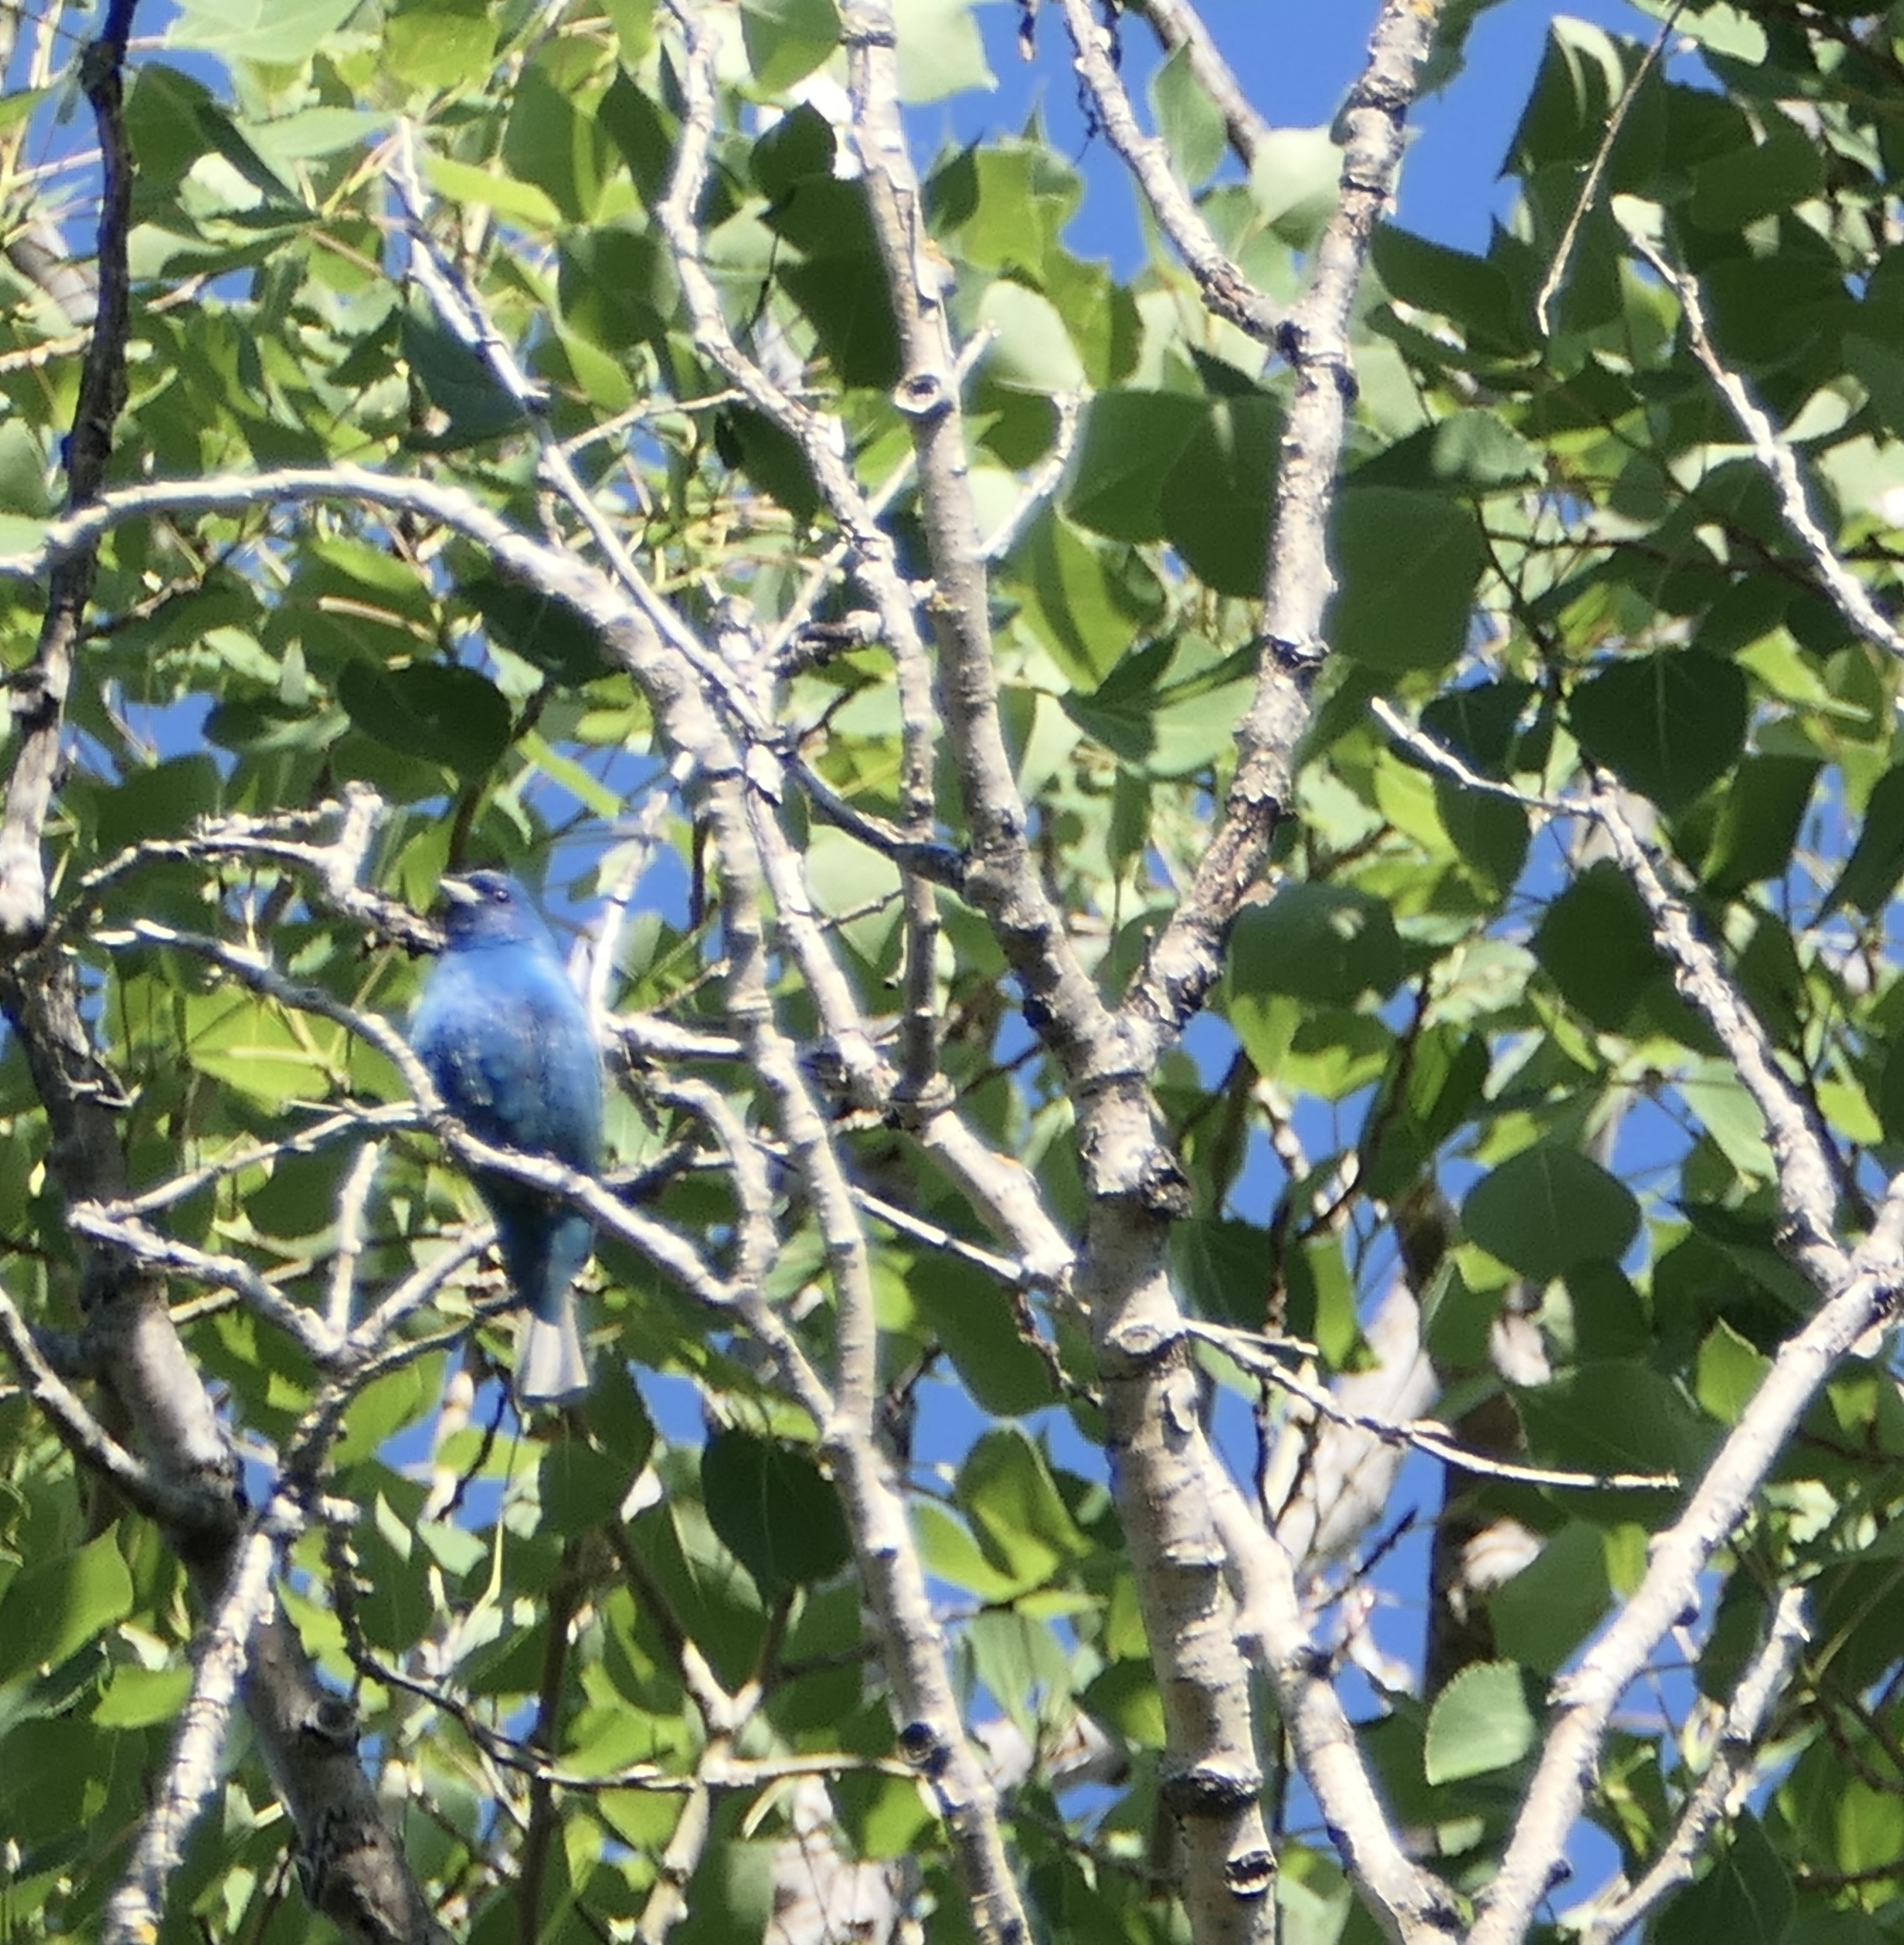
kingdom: Animalia
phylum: Chordata
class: Aves
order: Passeriformes
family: Cardinalidae
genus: Passerina
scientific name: Passerina cyanea
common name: Indigo bunting
